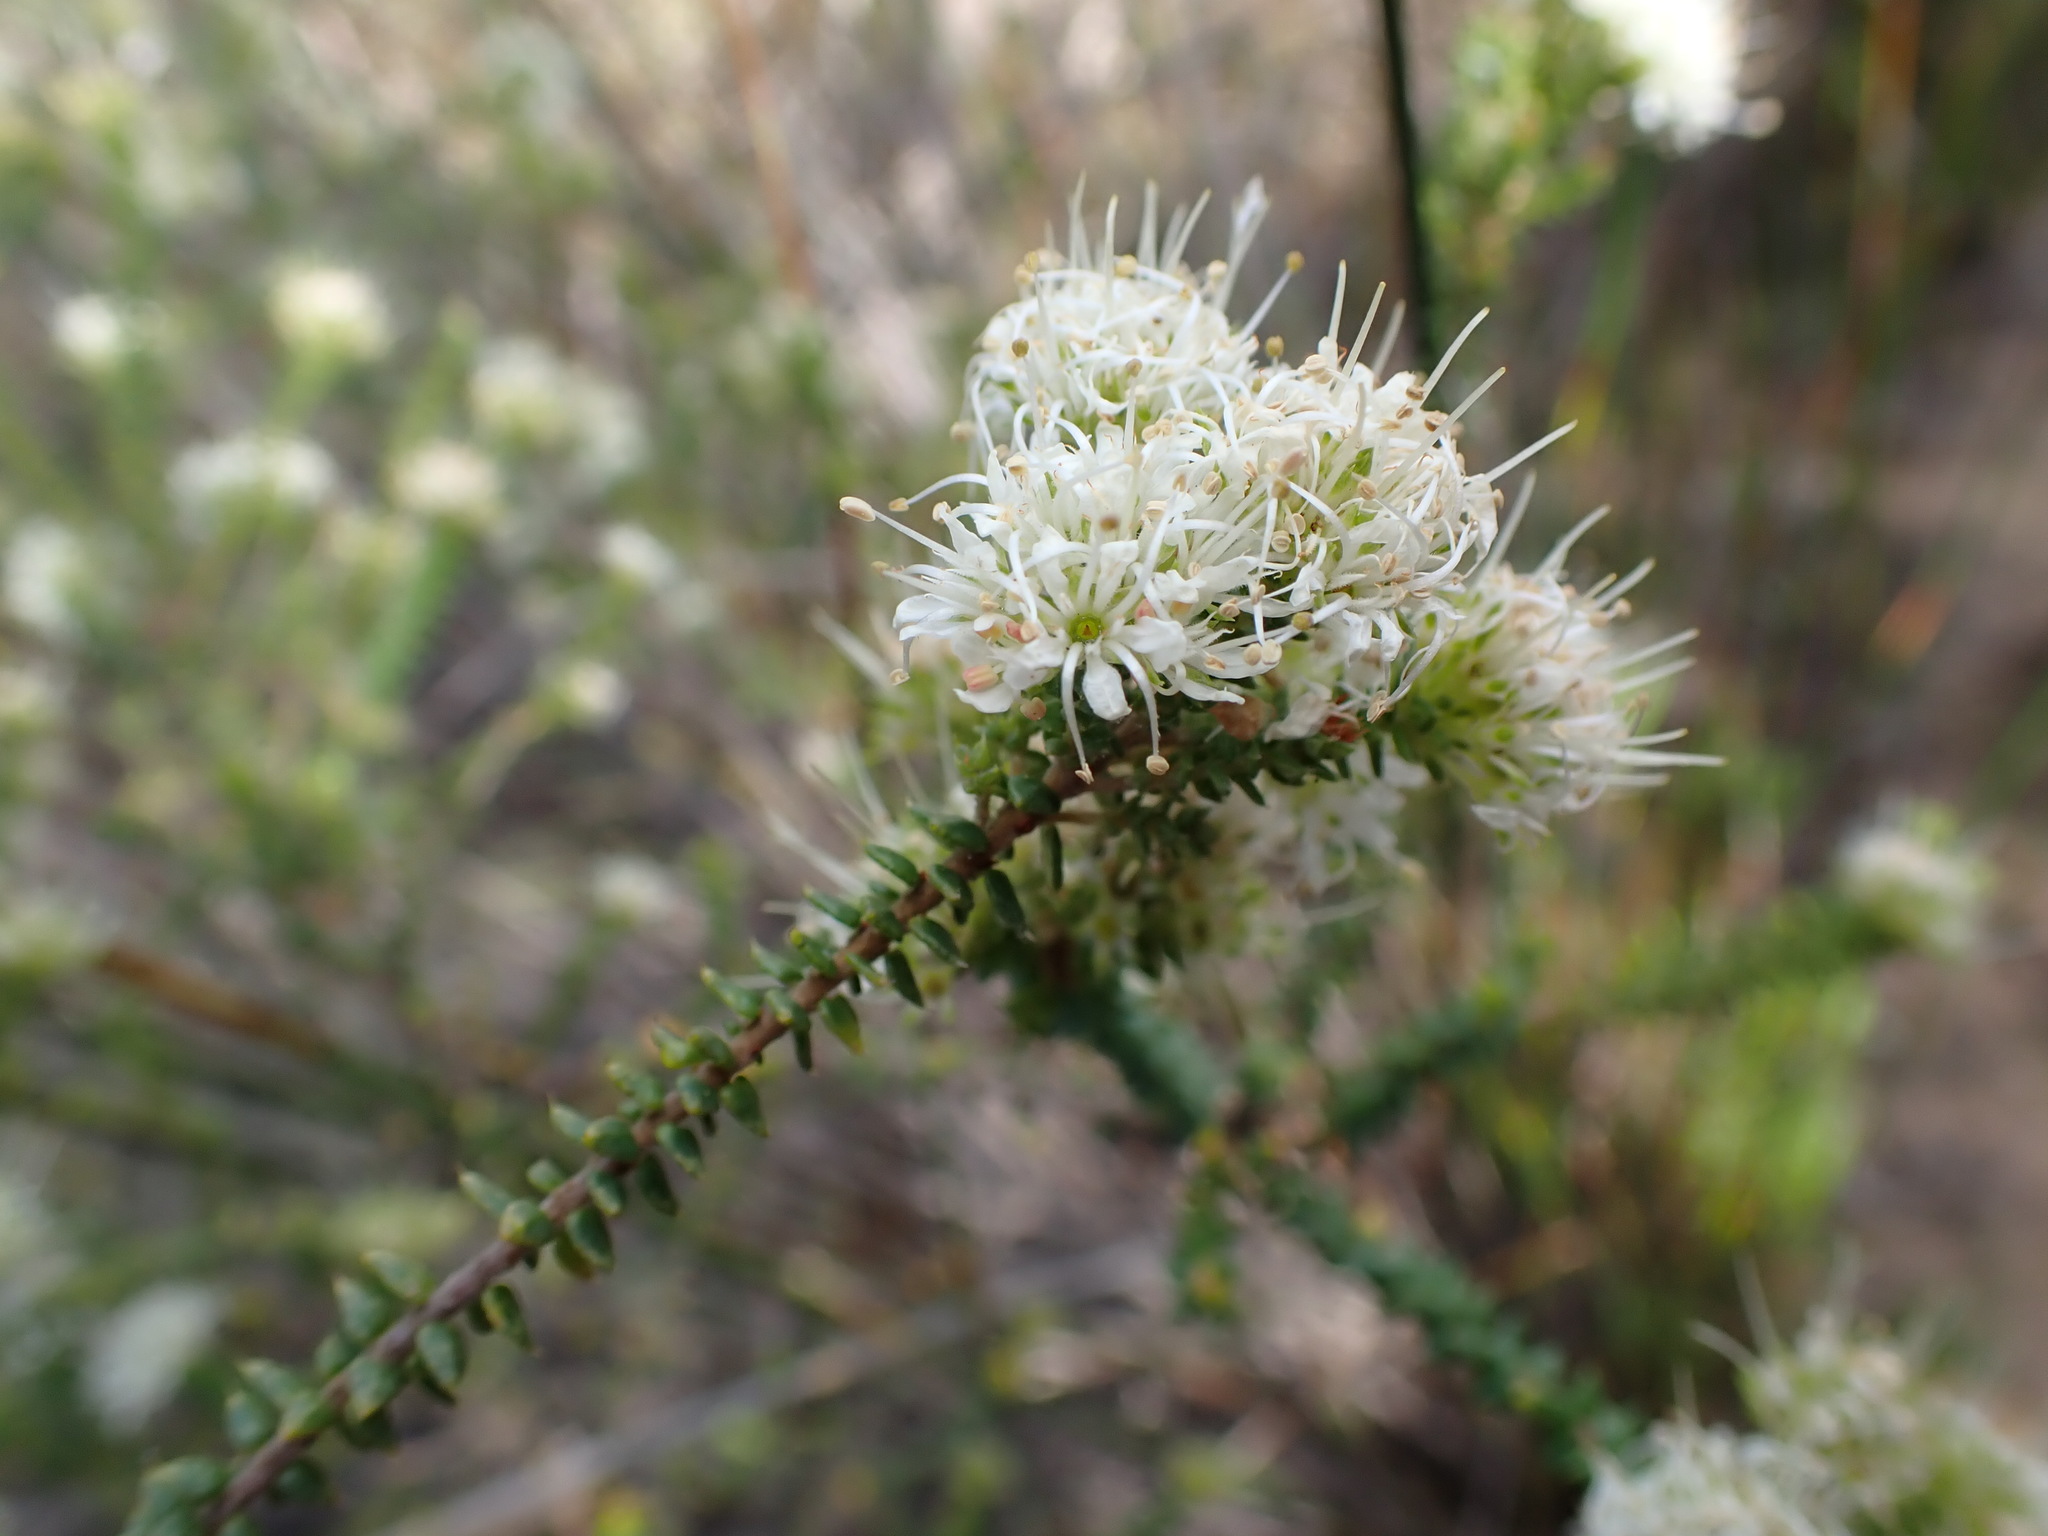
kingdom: Plantae
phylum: Tracheophyta
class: Magnoliopsida
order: Sapindales
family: Rutaceae
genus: Agathosma
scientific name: Agathosma apiculata
